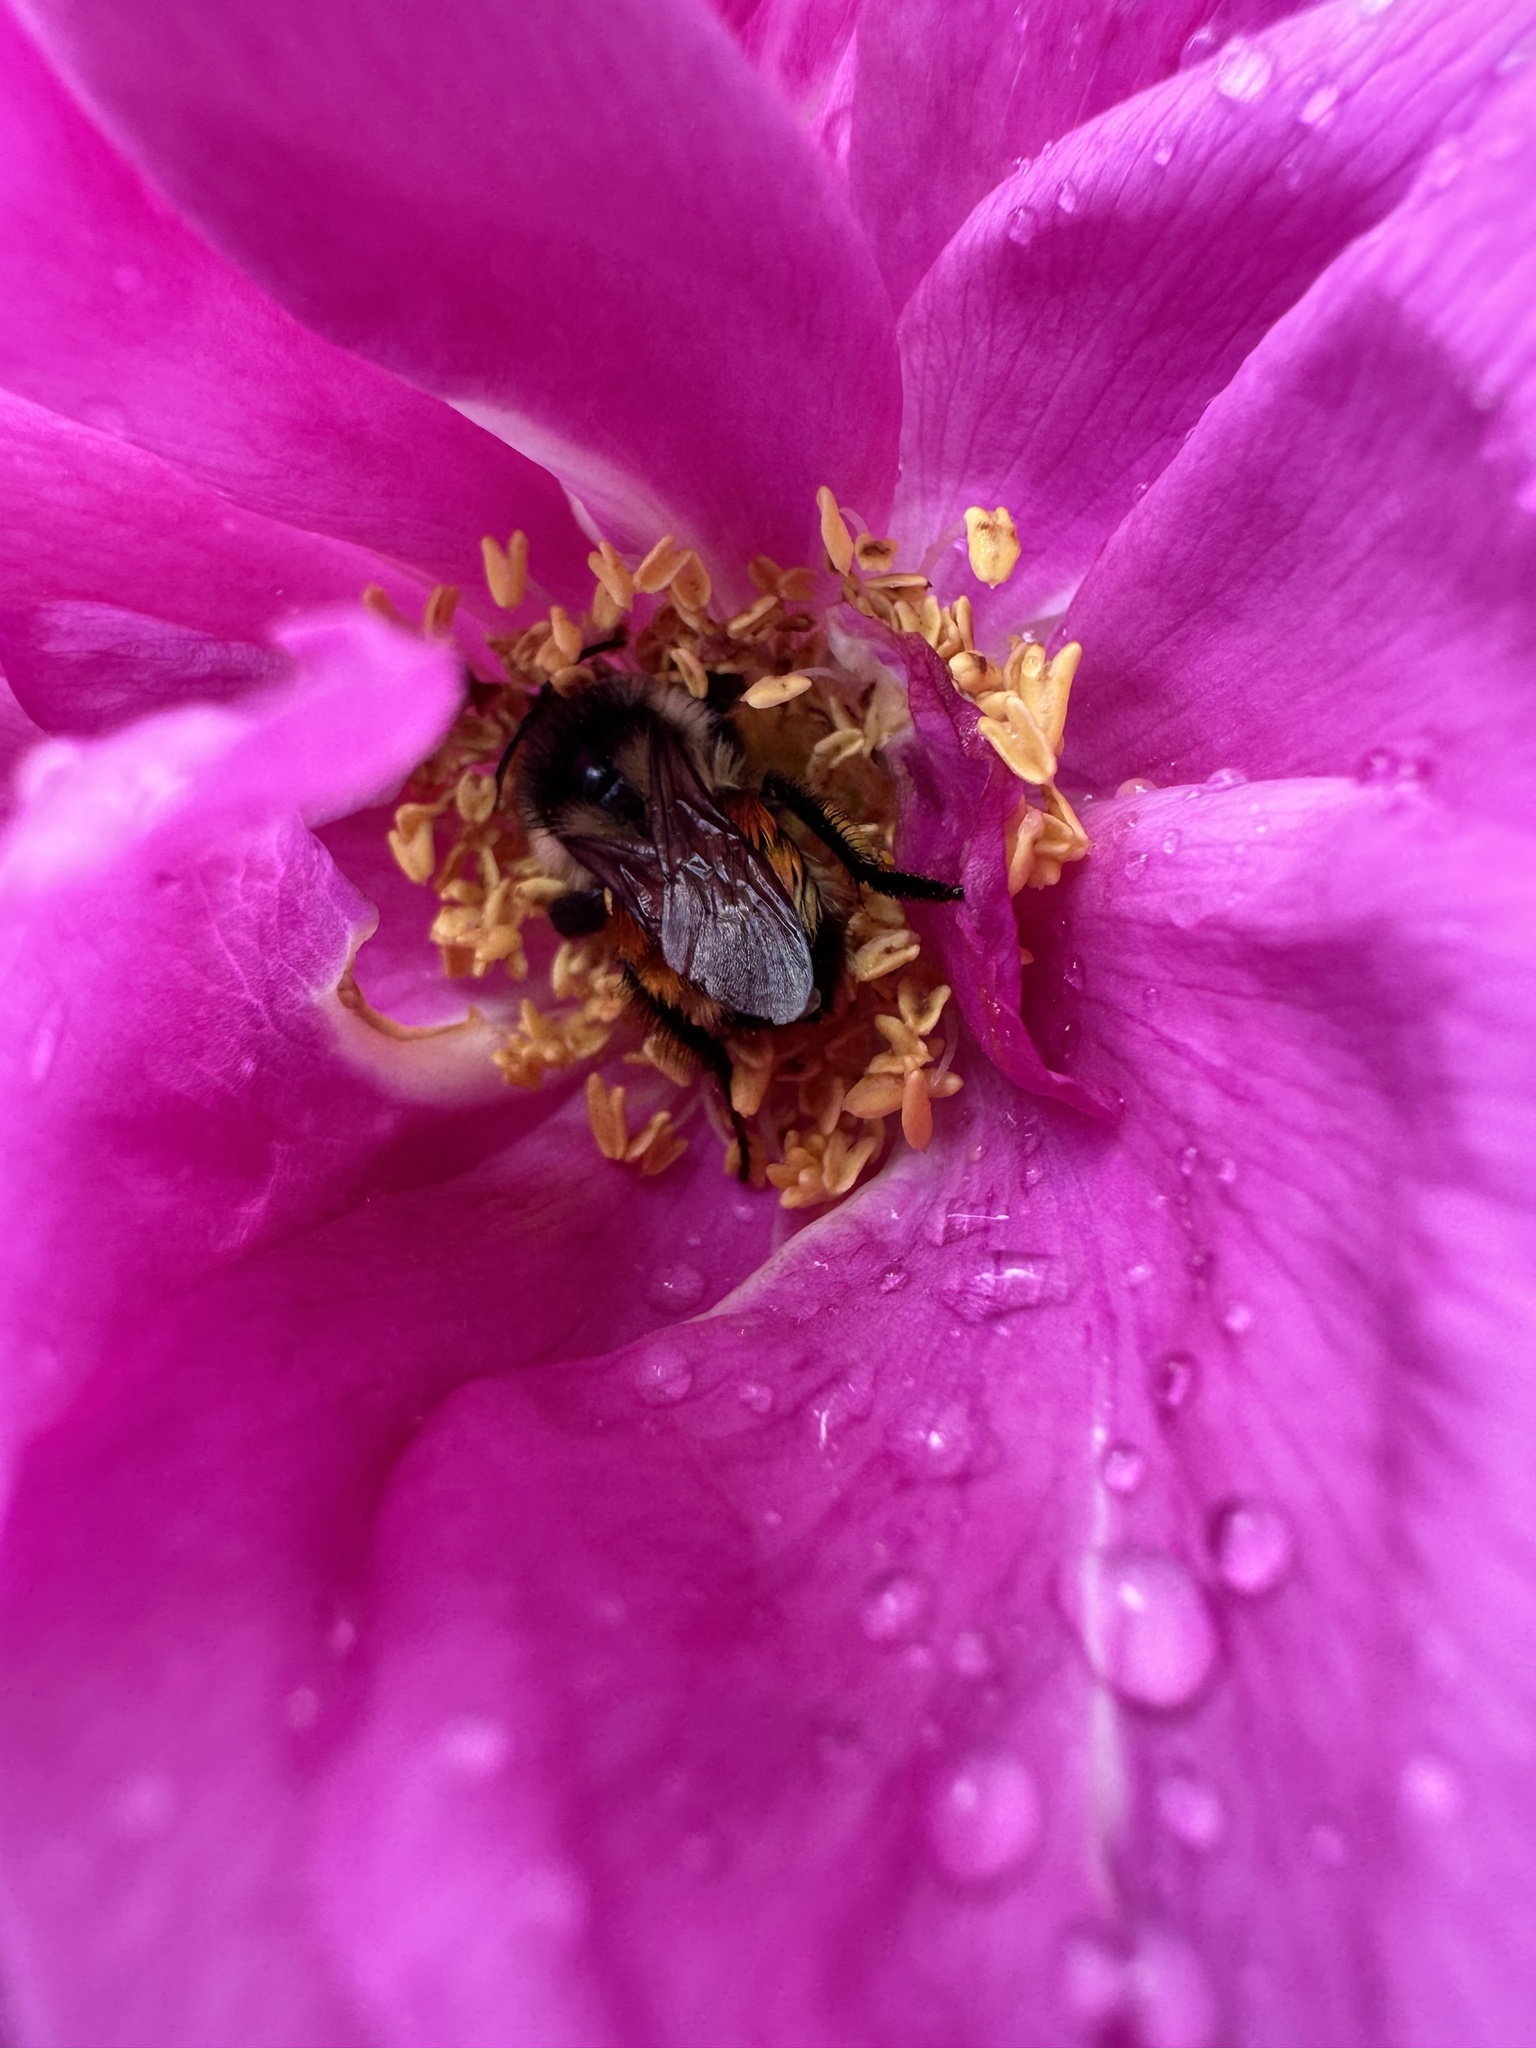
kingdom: Animalia
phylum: Arthropoda
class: Insecta
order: Hymenoptera
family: Apidae
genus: Bombus
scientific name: Bombus ternarius
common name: Tri-colored bumble bee
